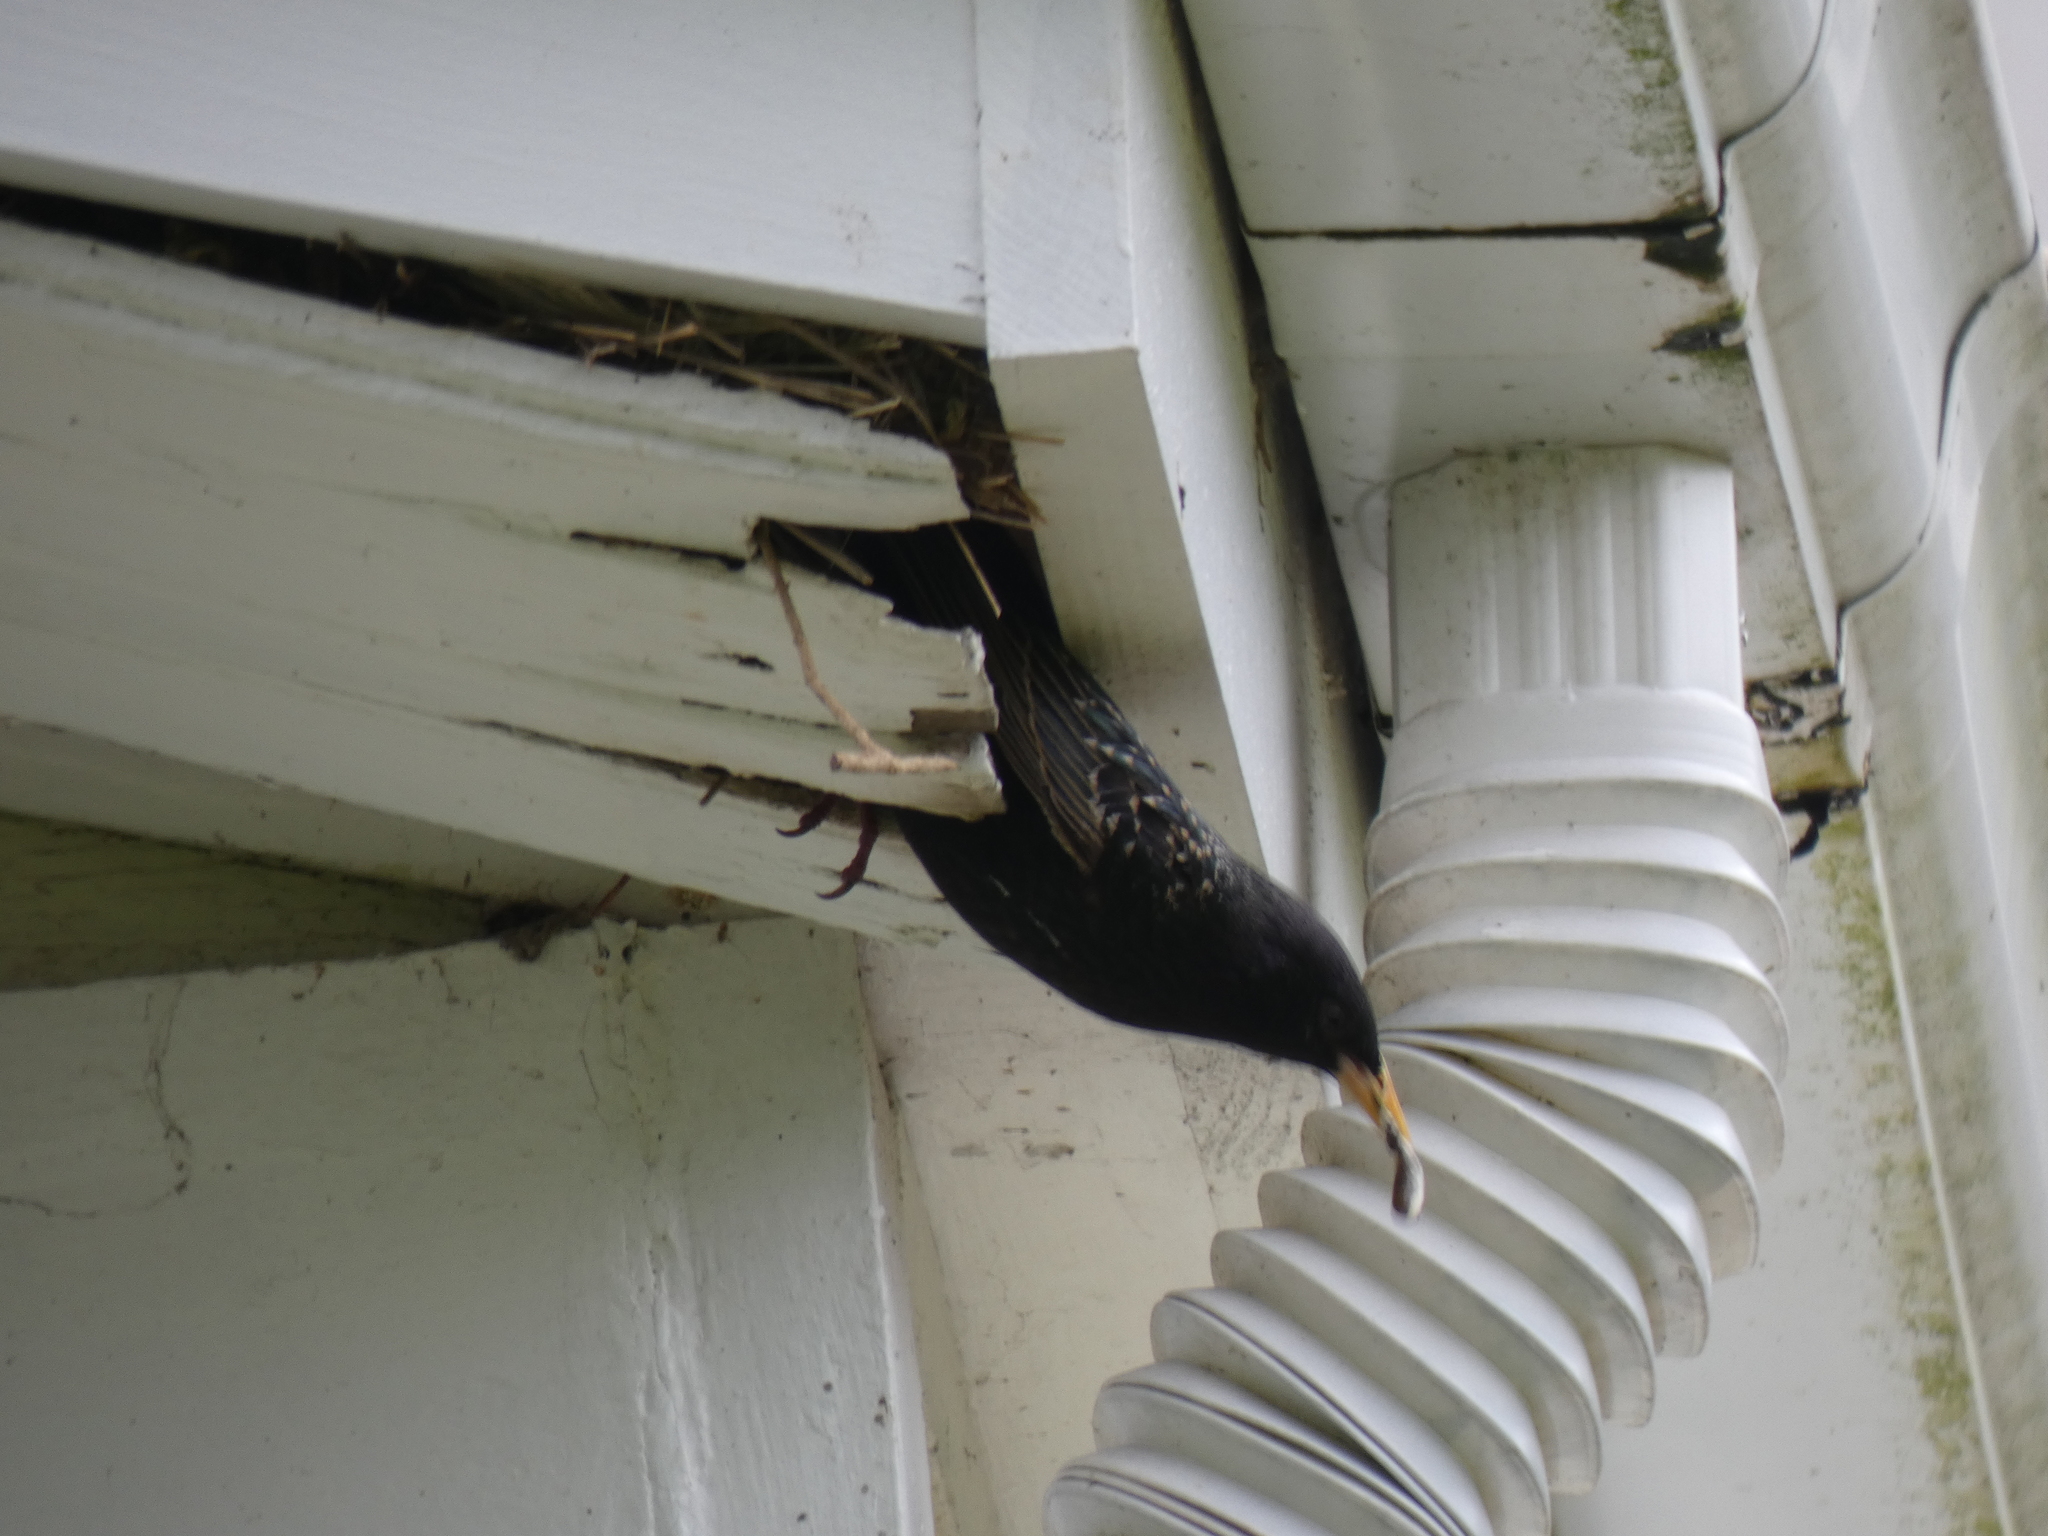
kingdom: Animalia
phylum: Chordata
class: Aves
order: Passeriformes
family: Sturnidae
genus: Sturnus
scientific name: Sturnus vulgaris
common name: Common starling
